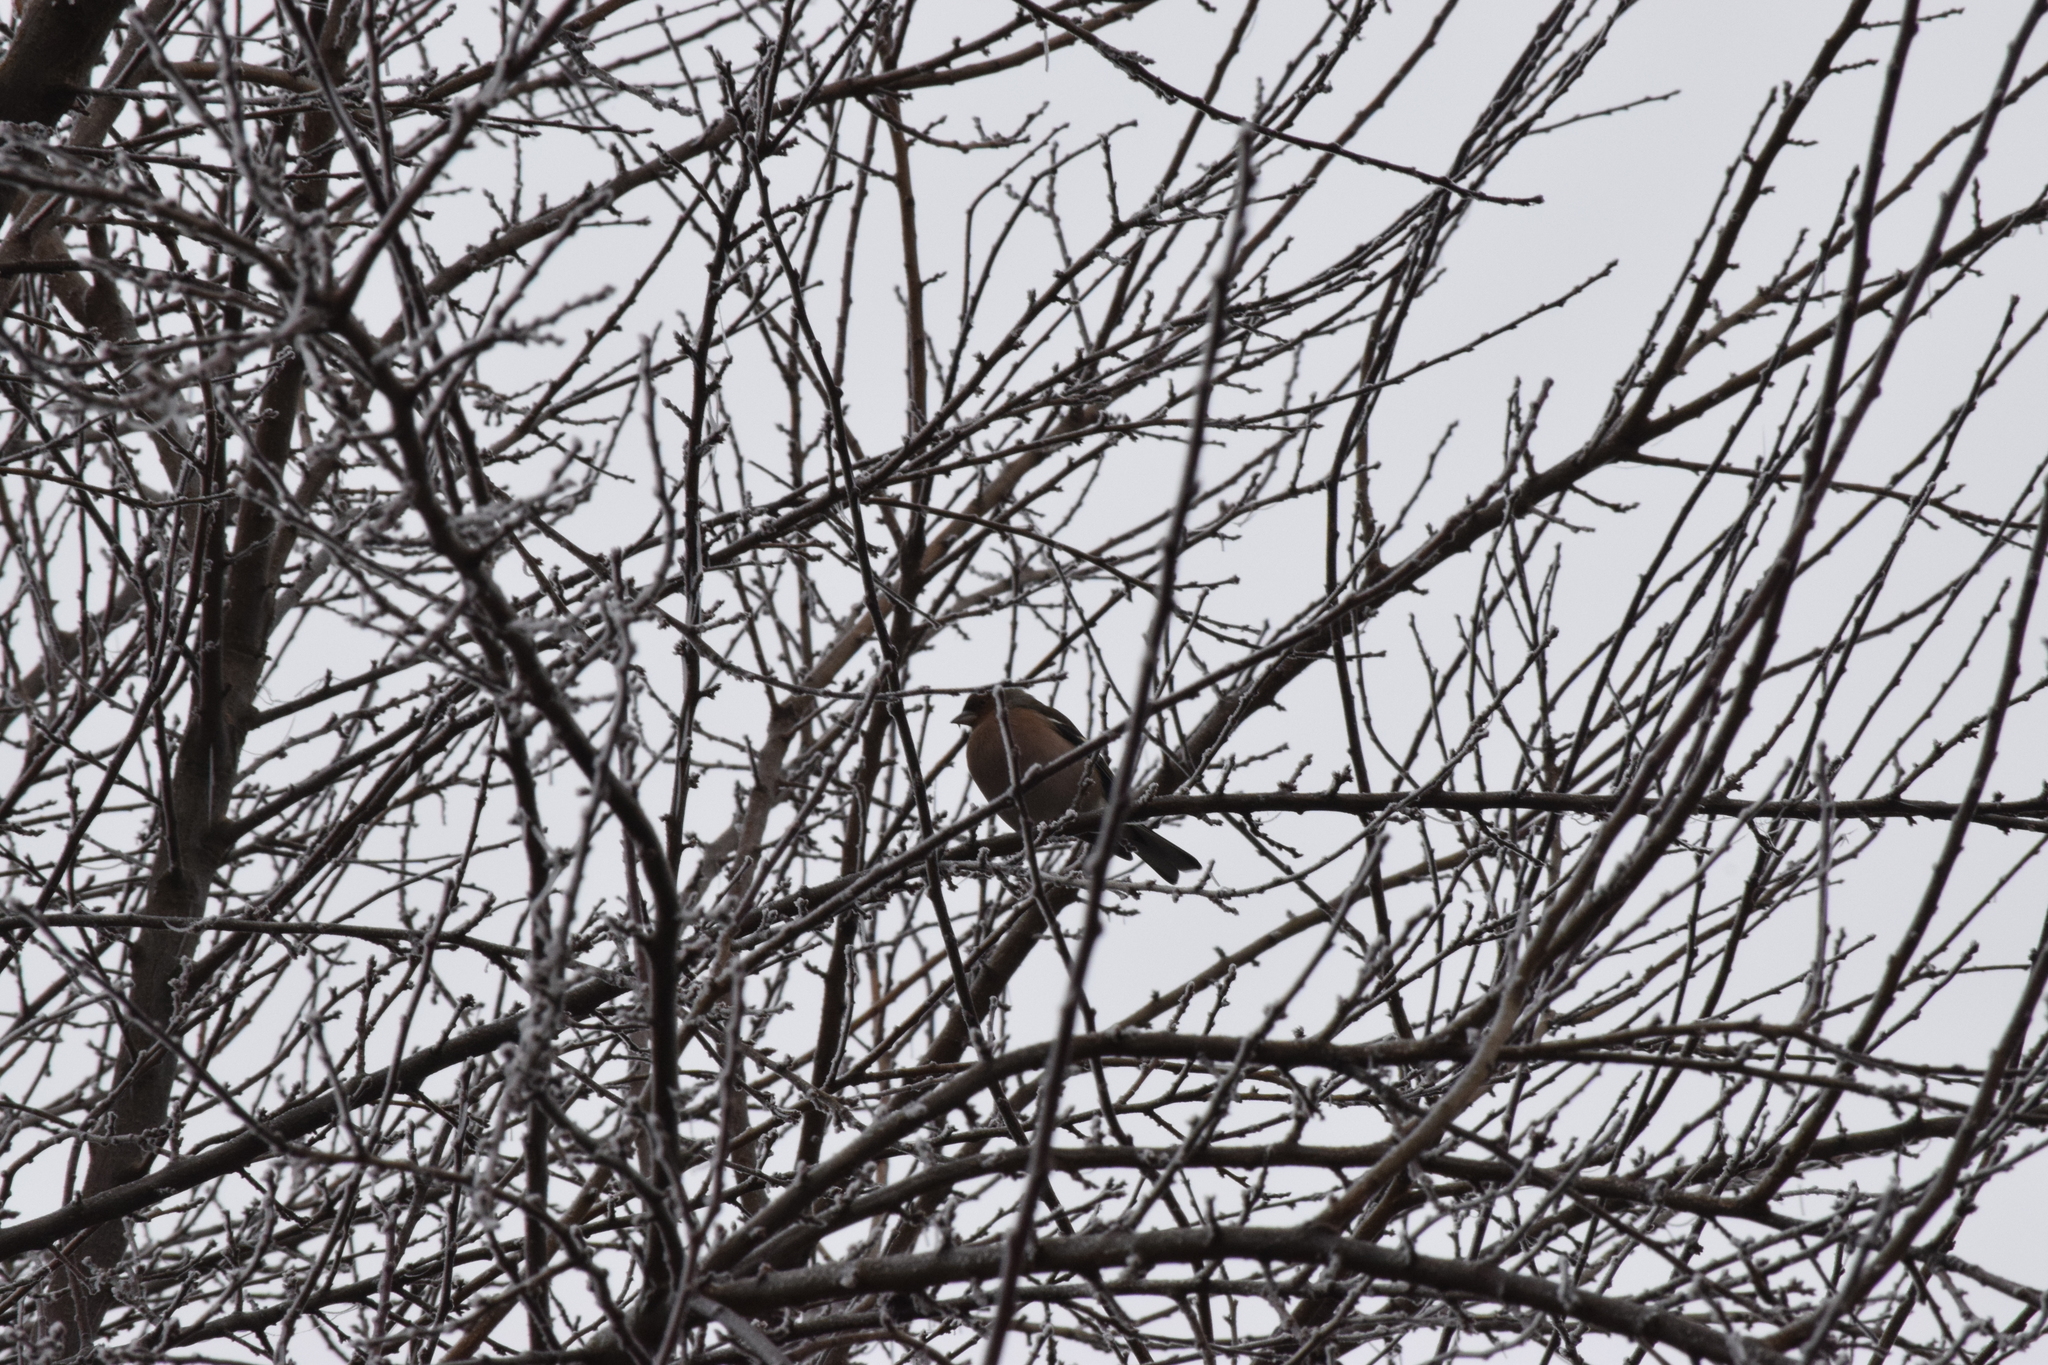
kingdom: Animalia
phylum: Chordata
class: Aves
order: Passeriformes
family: Fringillidae
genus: Fringilla
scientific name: Fringilla coelebs
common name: Common chaffinch
